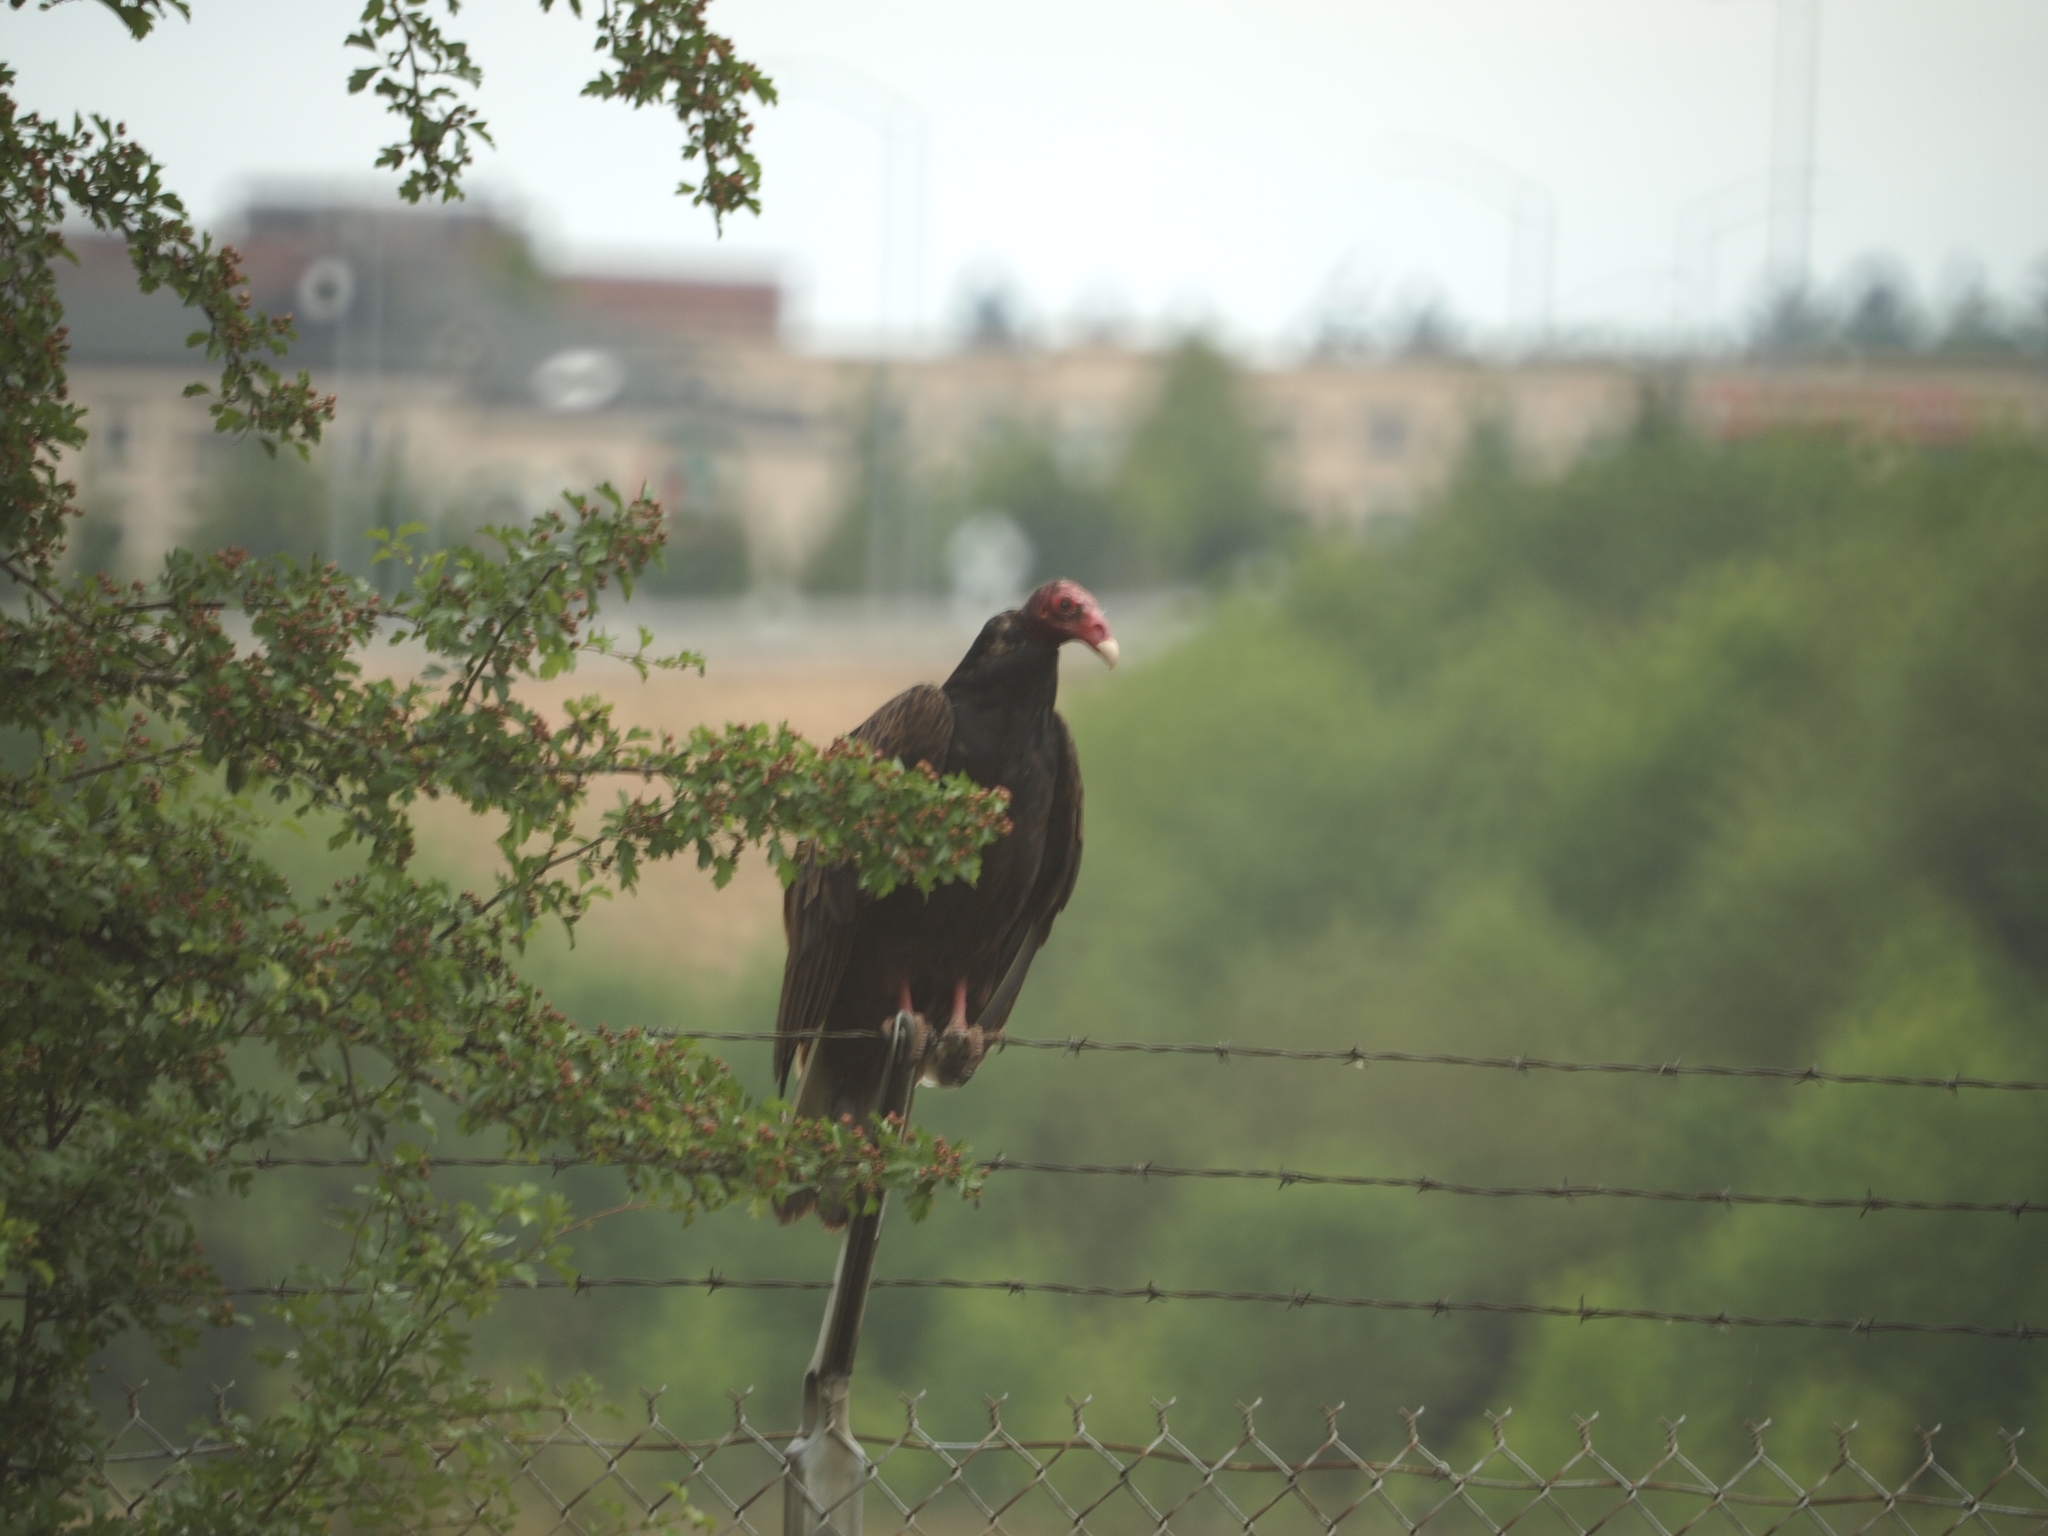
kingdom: Animalia
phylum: Chordata
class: Aves
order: Accipitriformes
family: Cathartidae
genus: Cathartes
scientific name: Cathartes aura
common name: Turkey vulture
